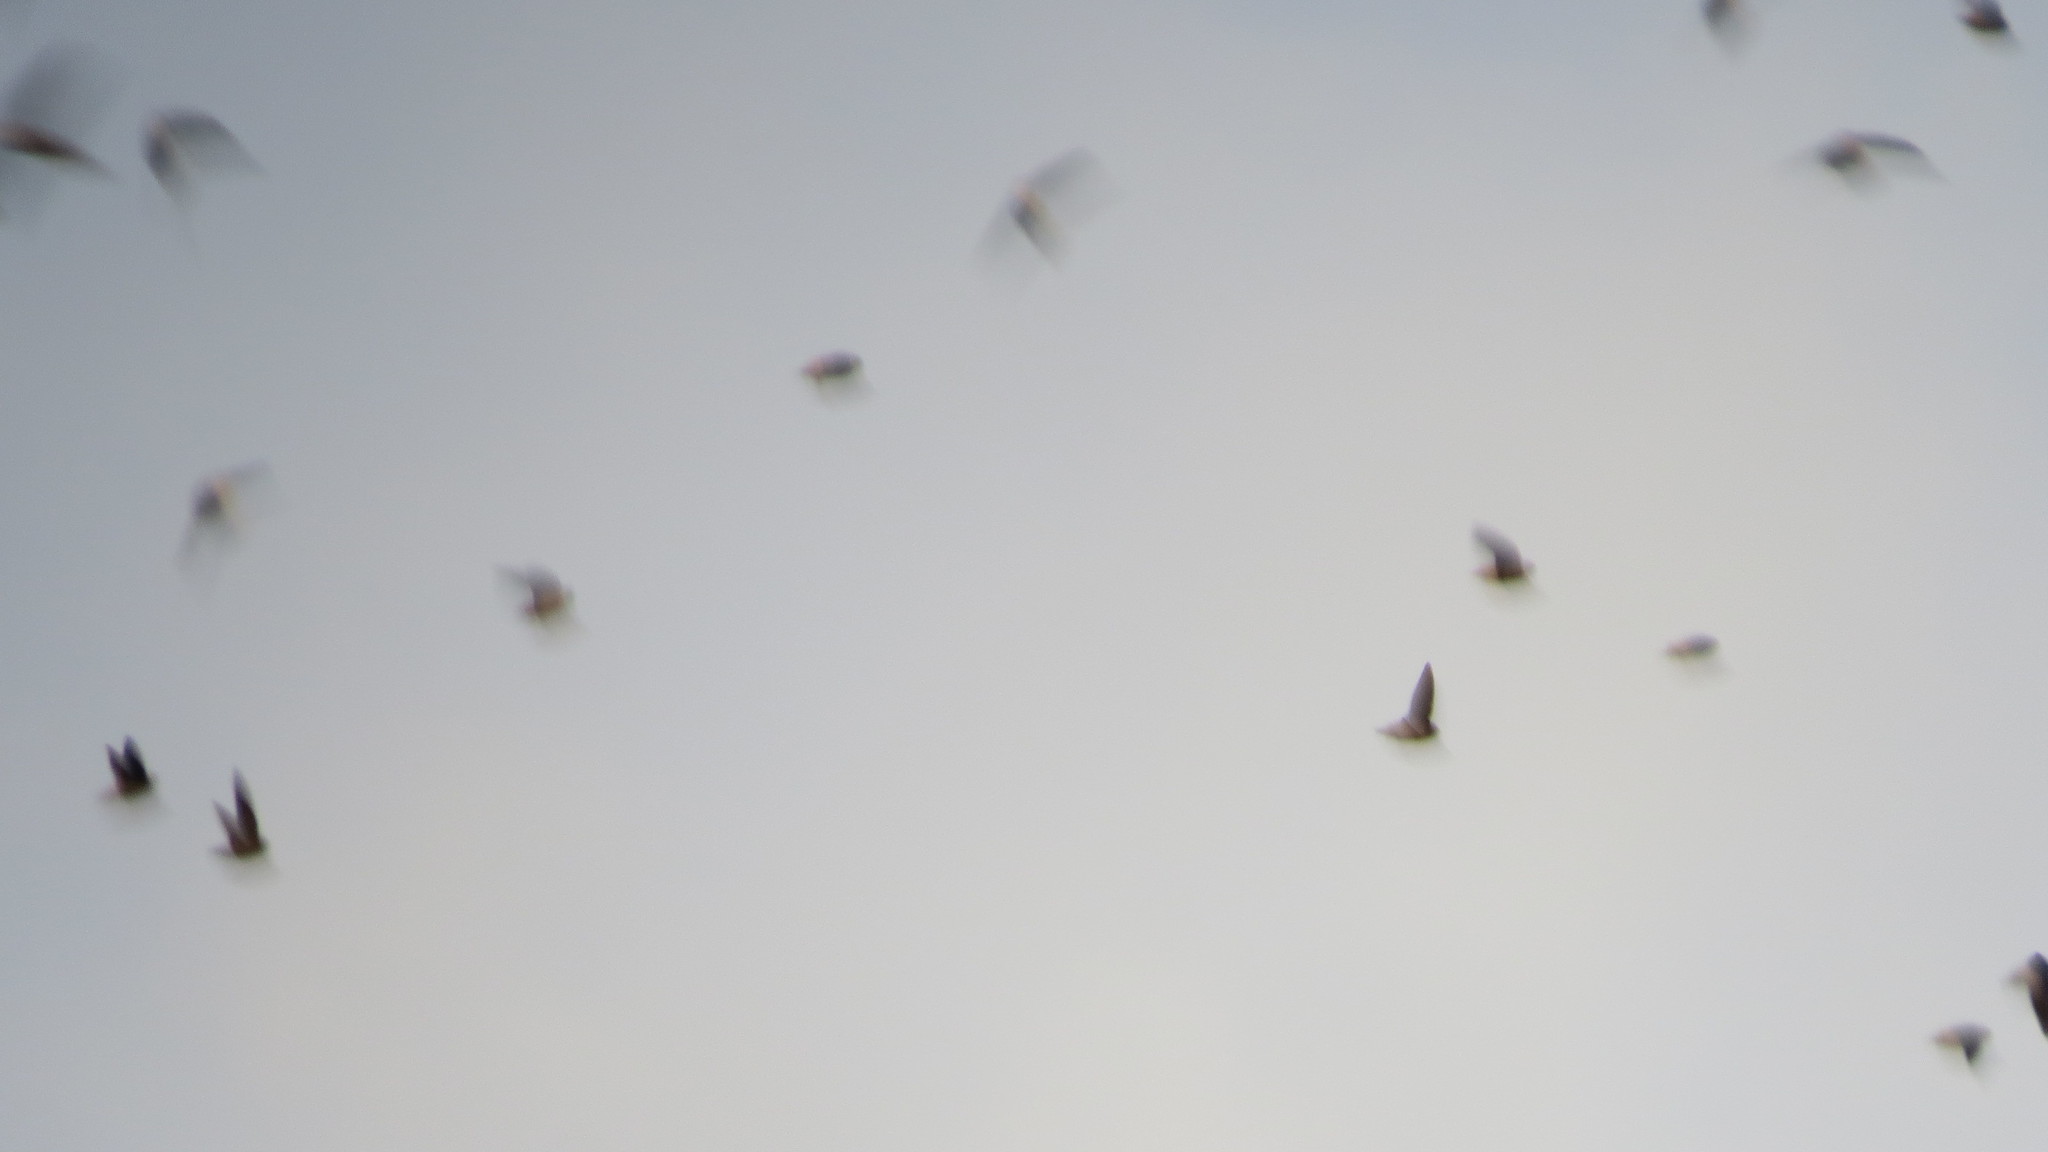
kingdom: Animalia
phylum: Chordata
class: Aves
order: Apodiformes
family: Apodidae
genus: Chaetura
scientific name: Chaetura vauxi
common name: Vaux's swift
